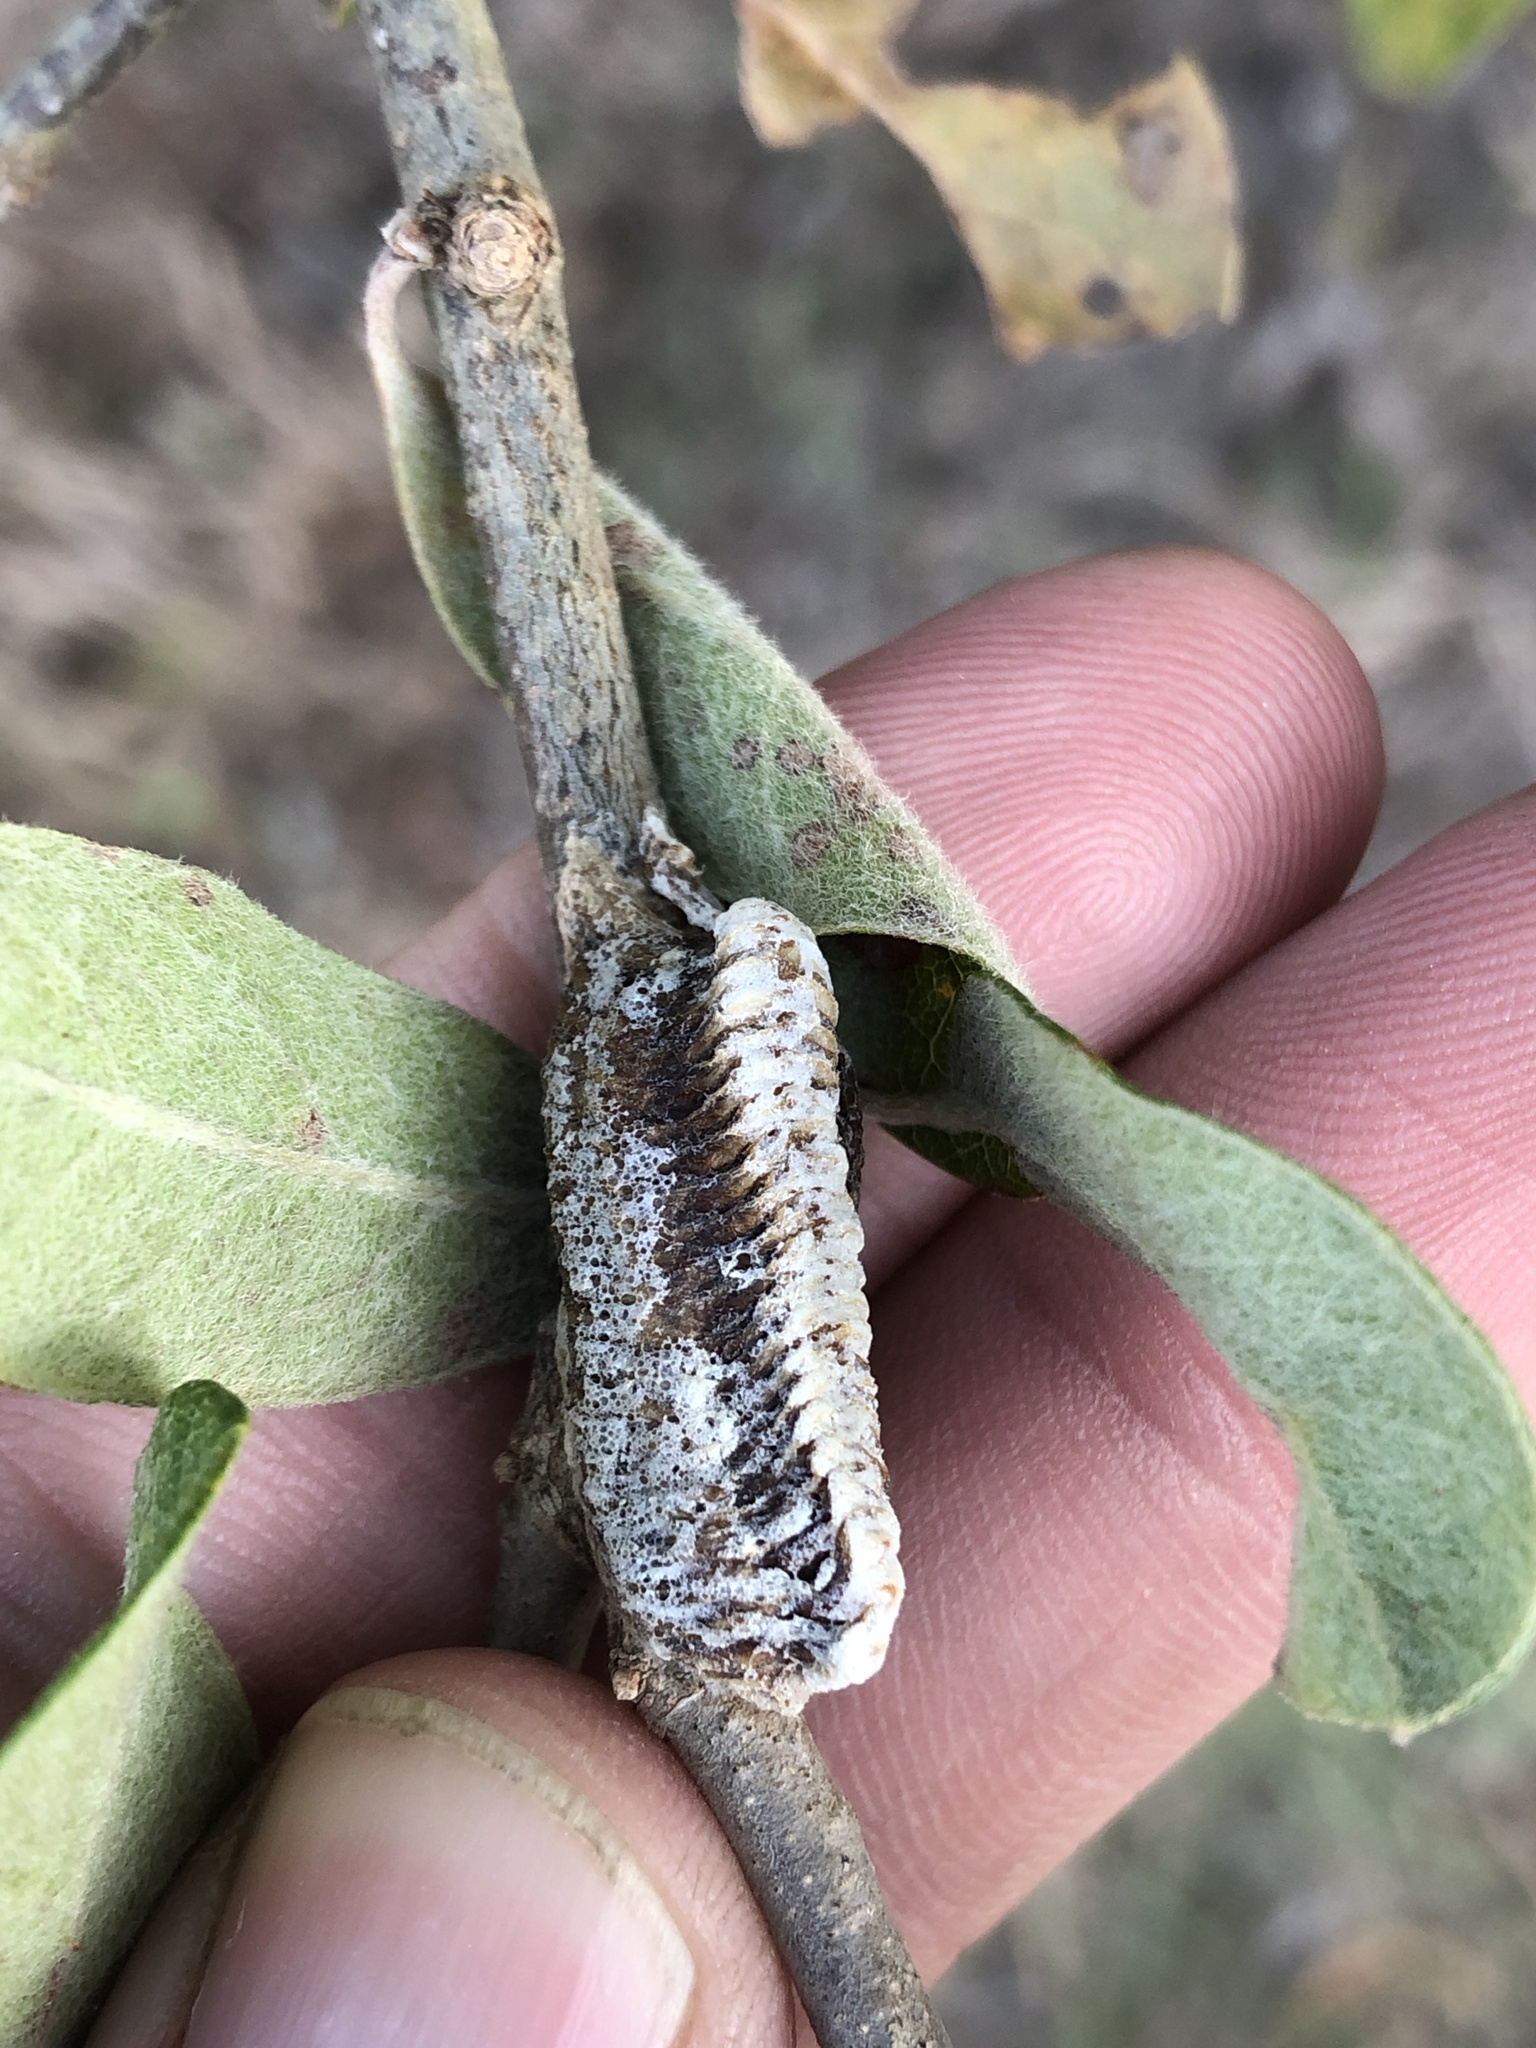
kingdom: Animalia
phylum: Arthropoda
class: Insecta
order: Mantodea
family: Mantidae
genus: Stagmomantis
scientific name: Stagmomantis carolina
